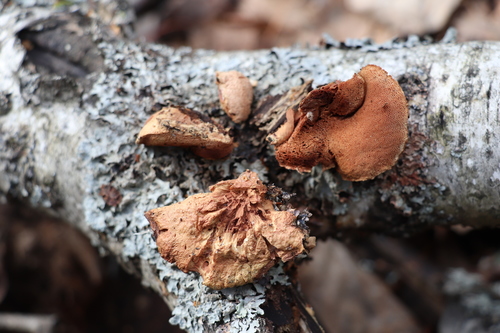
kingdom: Fungi
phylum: Basidiomycota
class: Agaricomycetes
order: Polyporales
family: Phanerochaetaceae
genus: Hapalopilus
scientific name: Hapalopilus rutilans
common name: Tender nesting polypore
